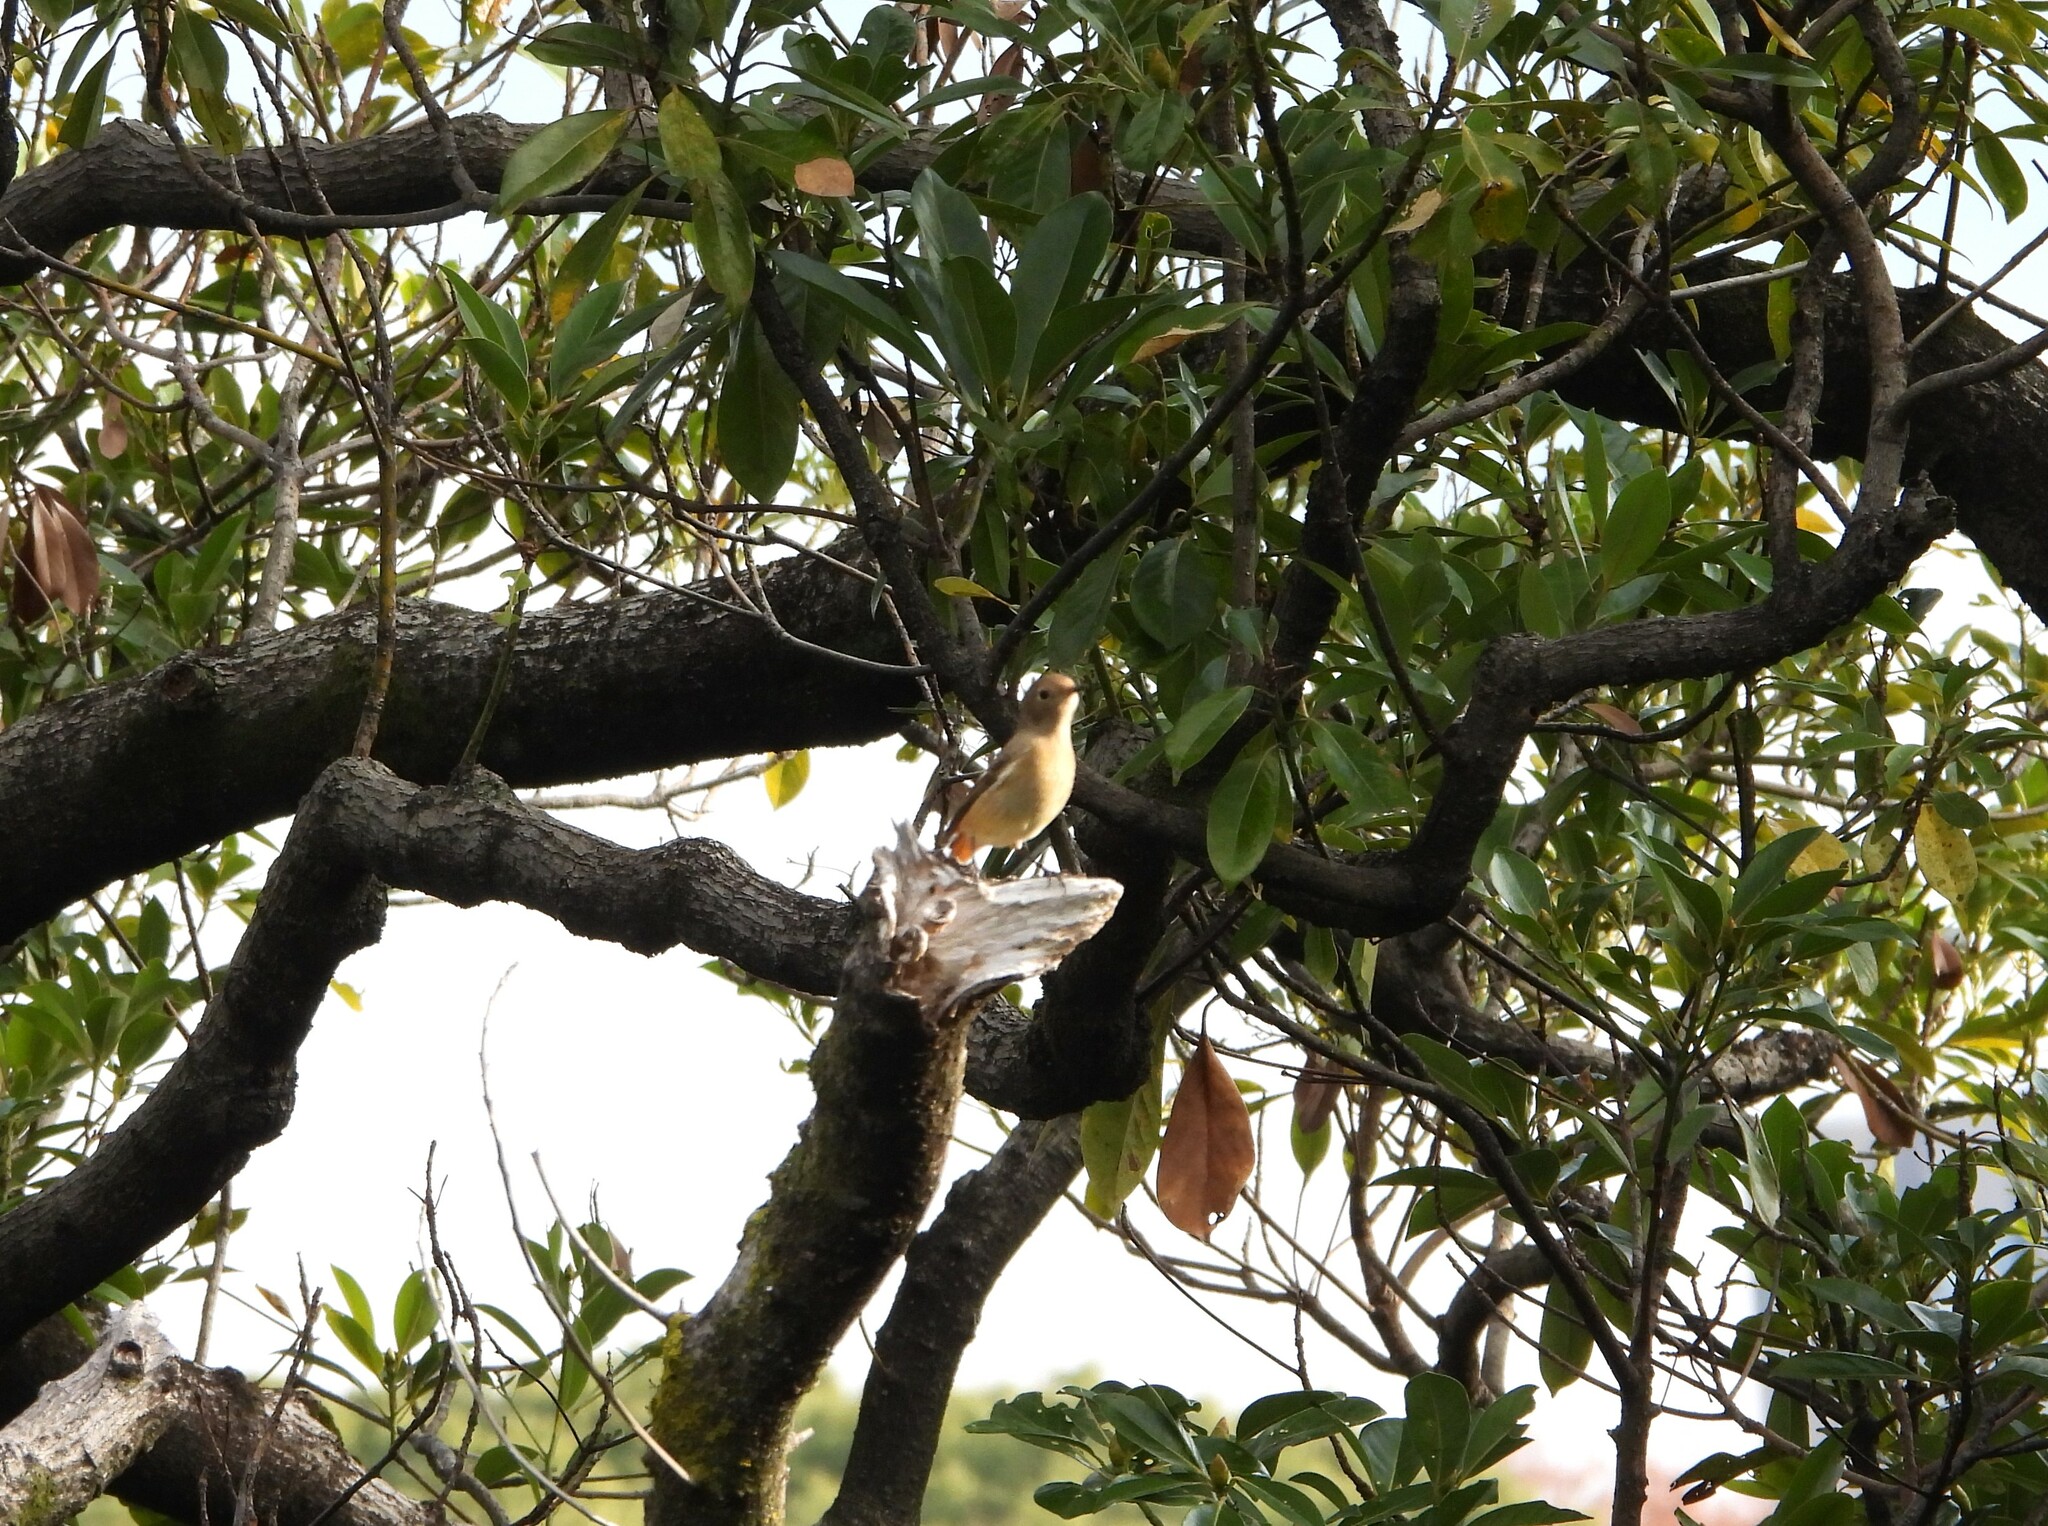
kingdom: Animalia
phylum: Chordata
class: Aves
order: Passeriformes
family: Muscicapidae
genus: Phoenicurus
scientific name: Phoenicurus auroreus
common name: Daurian redstart
